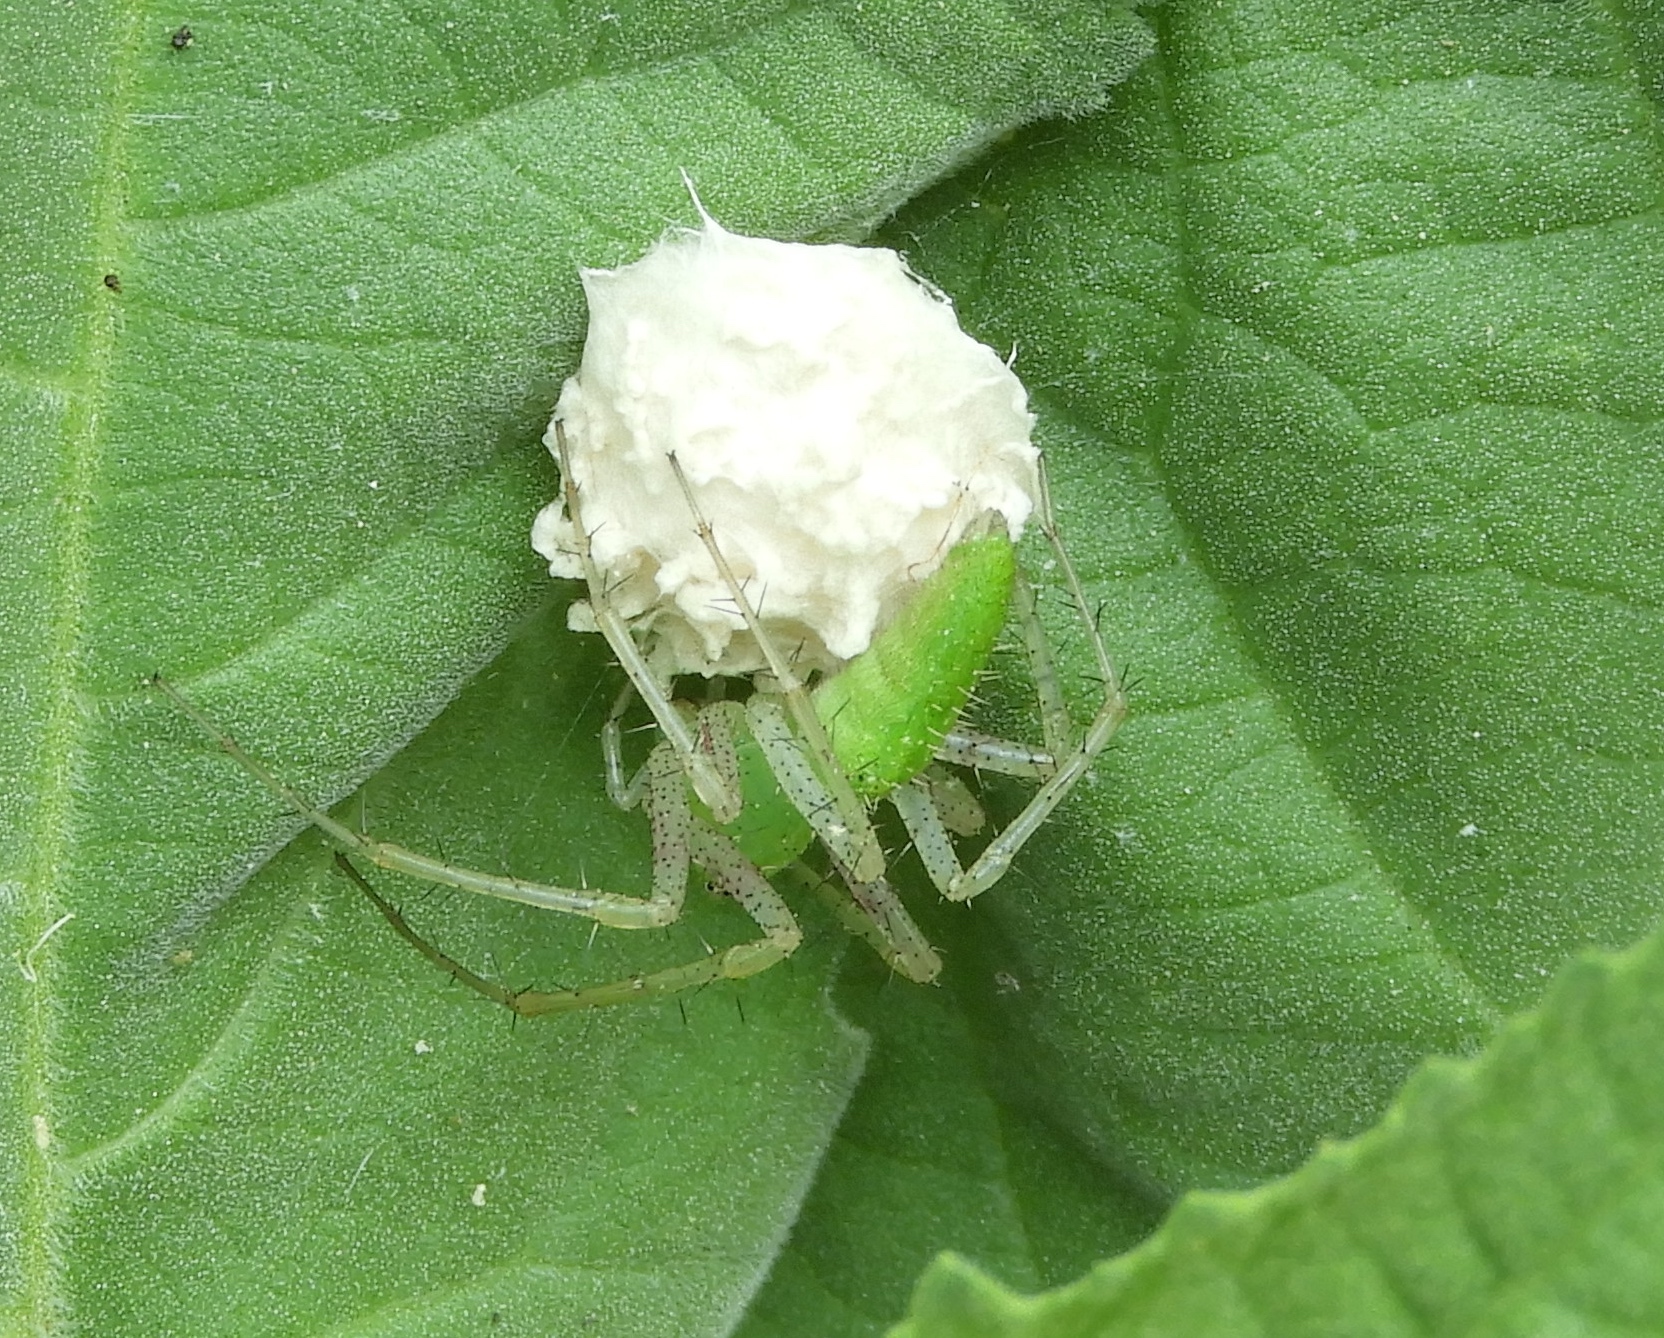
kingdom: Animalia
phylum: Arthropoda
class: Arachnida
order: Araneae
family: Oxyopidae
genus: Peucetia
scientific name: Peucetia longipalpis
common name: Lynx spiders
